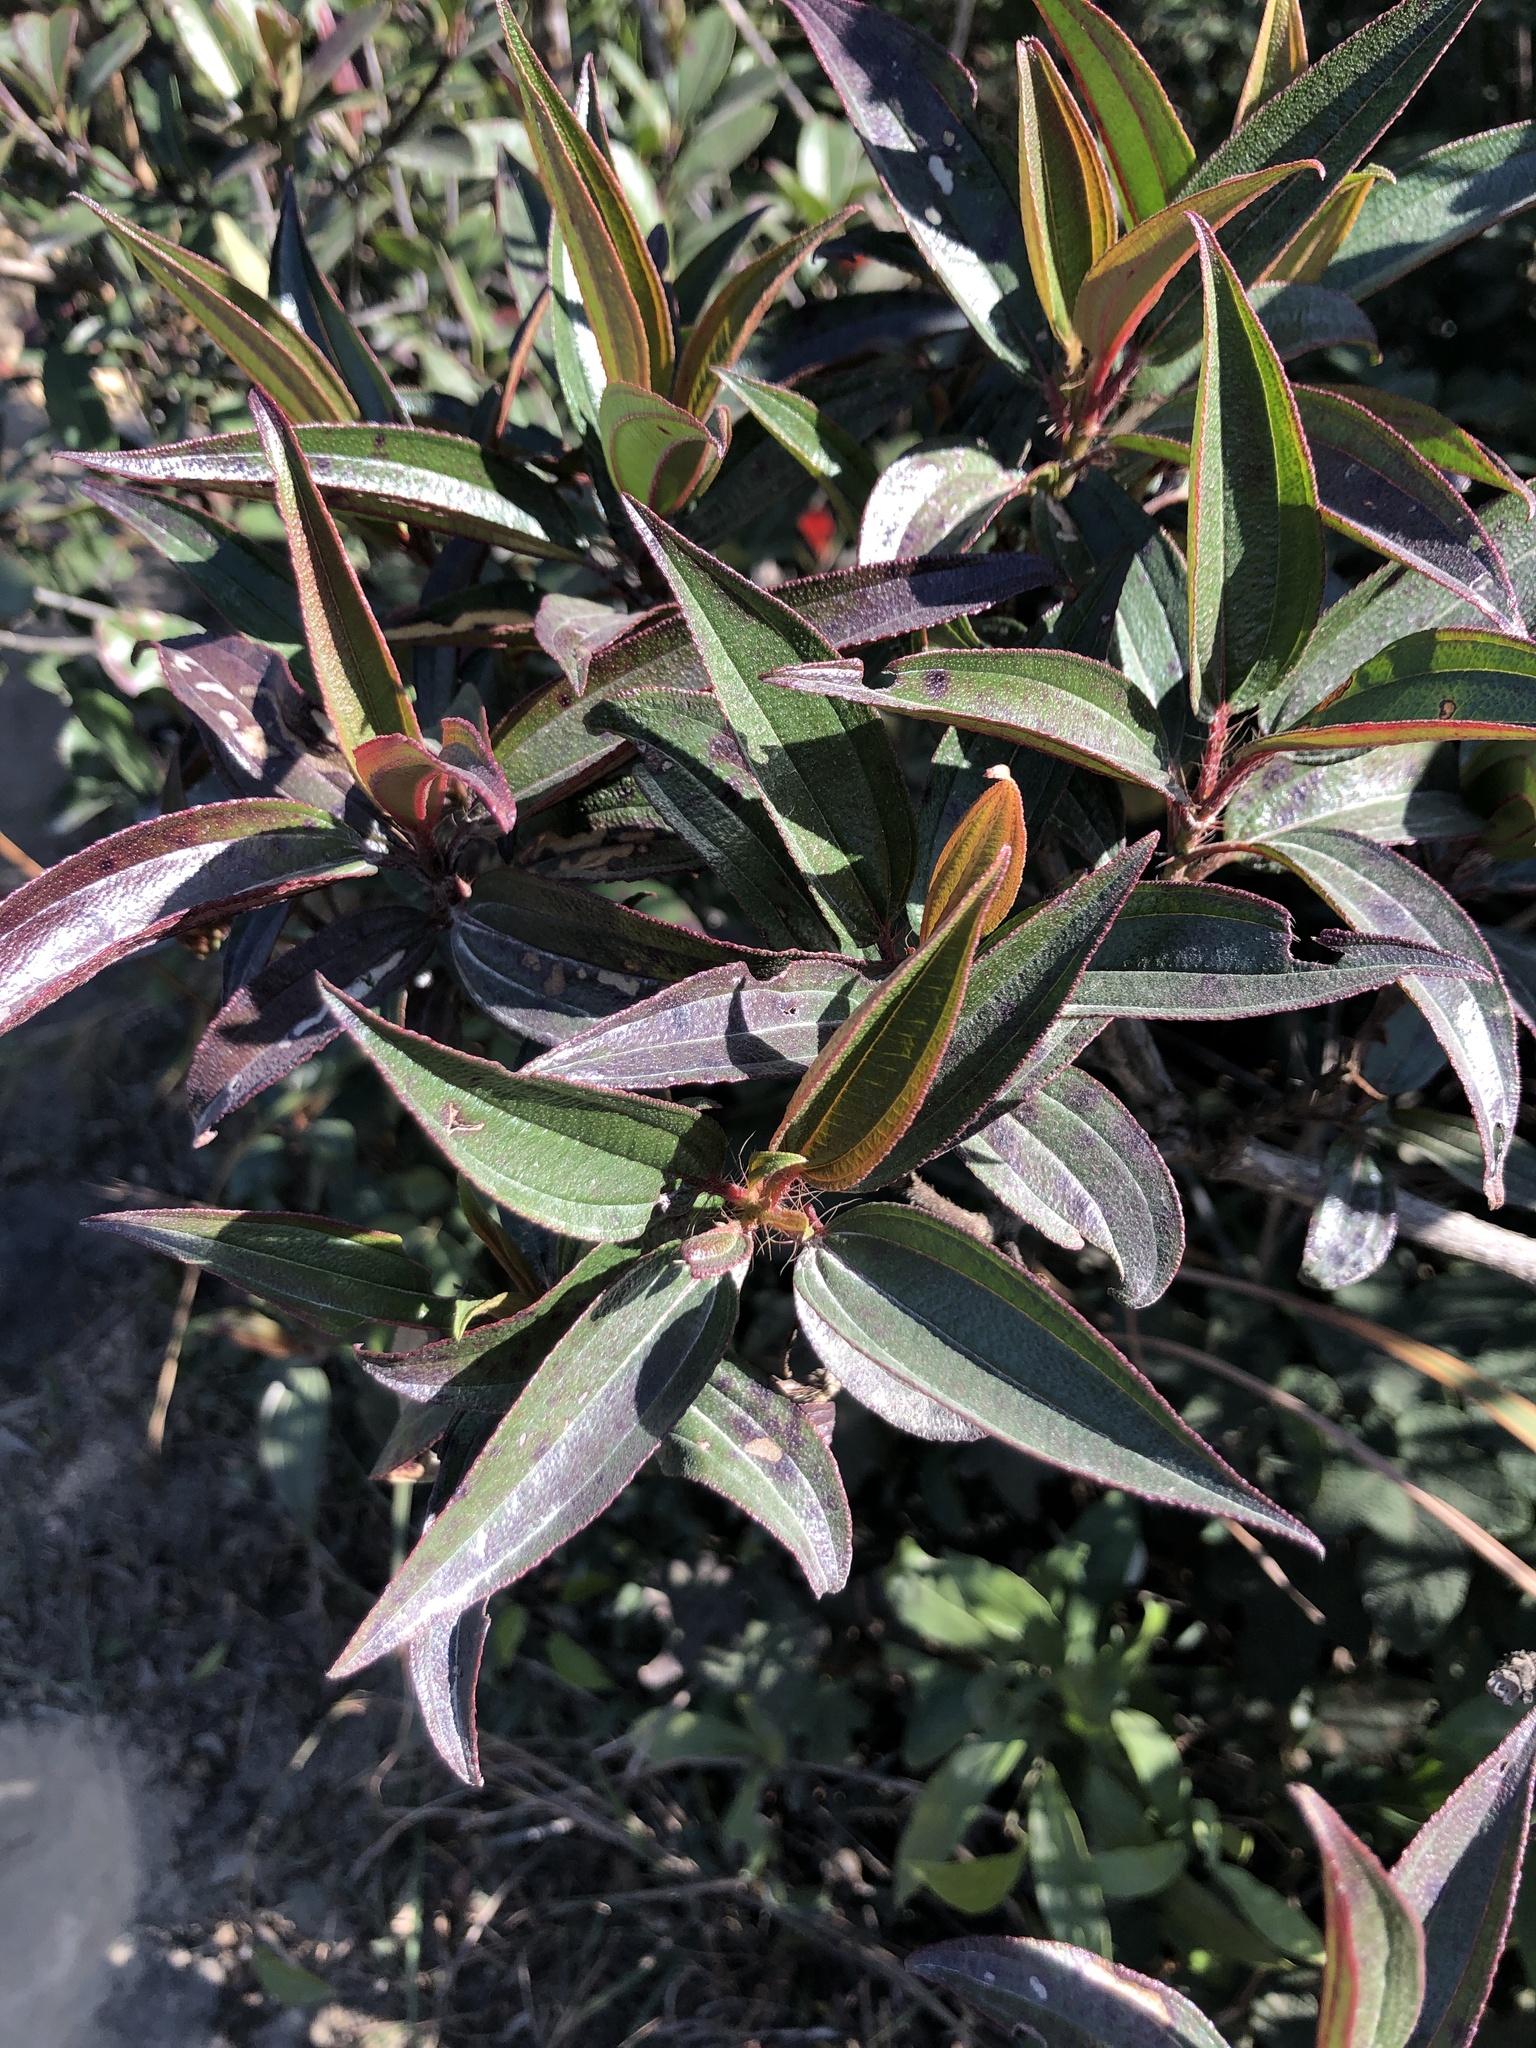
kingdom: Plantae
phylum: Tracheophyta
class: Magnoliopsida
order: Myrtales
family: Melastomataceae
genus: Melastoma
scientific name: Melastoma sanguineum
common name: Red melastome
